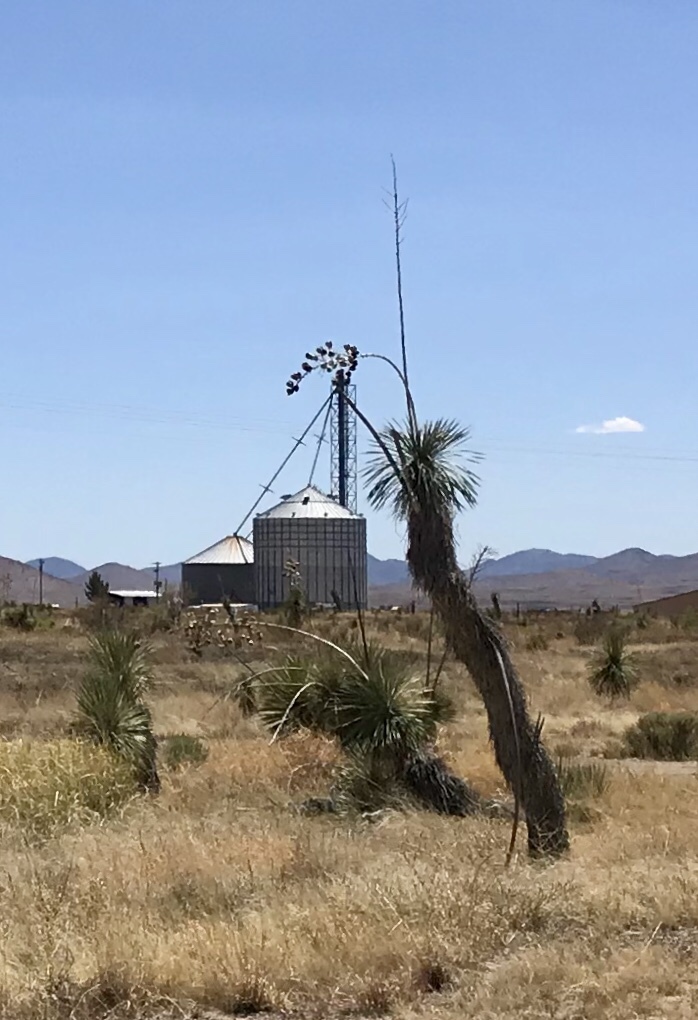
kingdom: Plantae
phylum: Tracheophyta
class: Liliopsida
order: Asparagales
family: Asparagaceae
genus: Yucca
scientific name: Yucca elata
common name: Palmella
